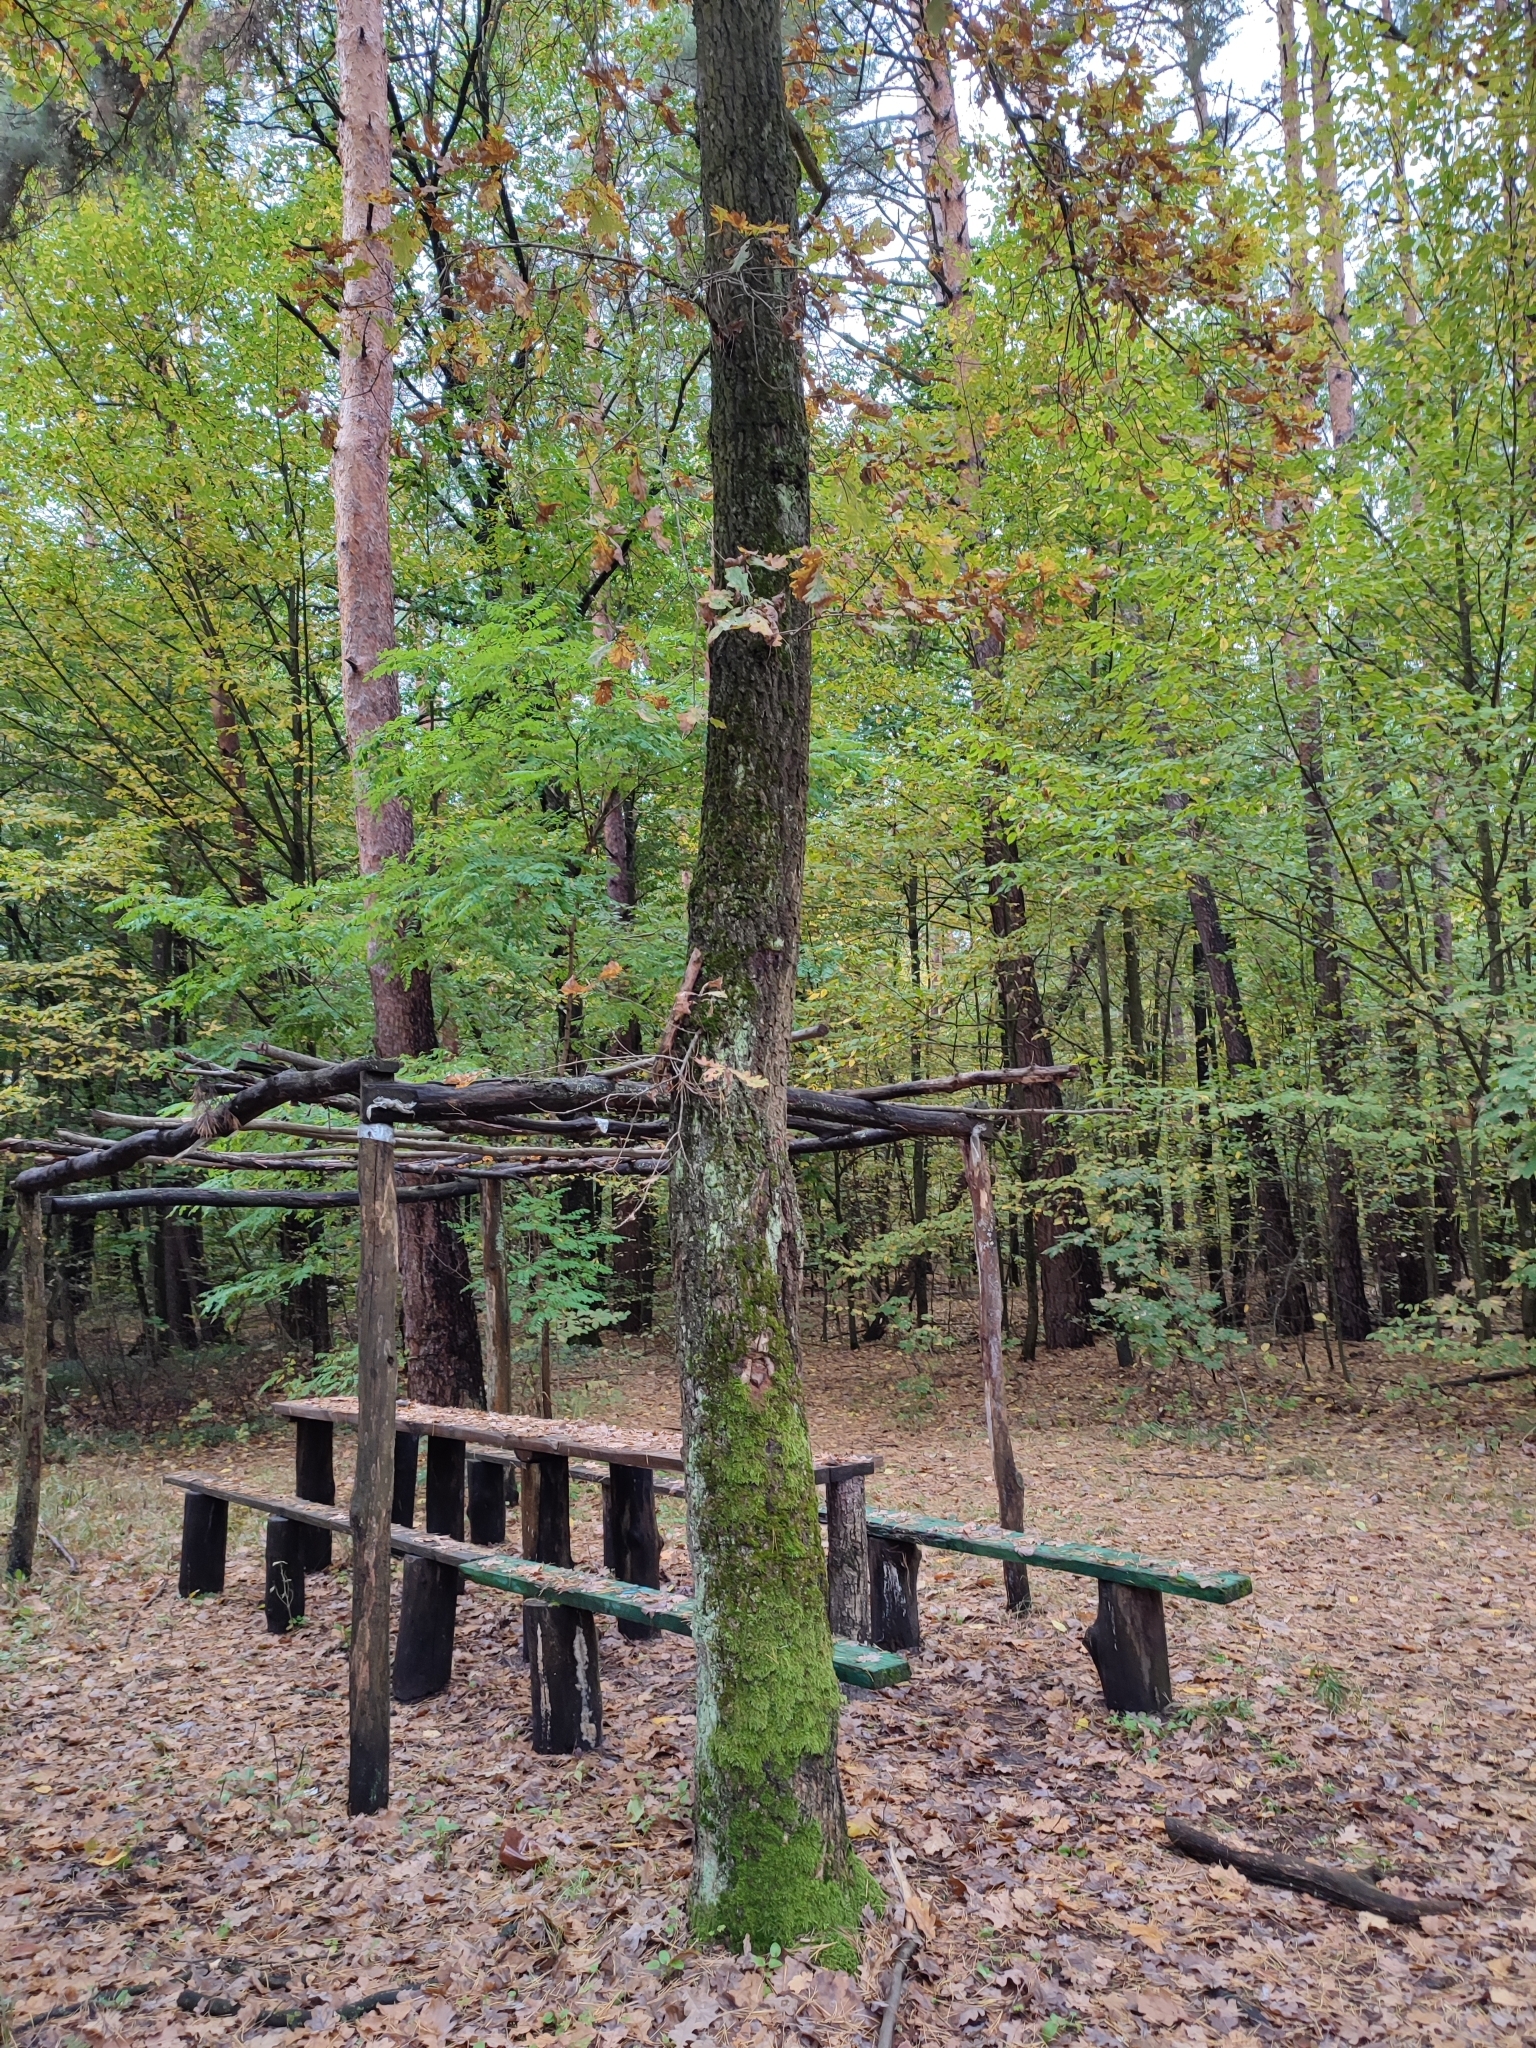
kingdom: Plantae
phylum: Tracheophyta
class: Magnoliopsida
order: Fagales
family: Fagaceae
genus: Quercus
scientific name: Quercus robur
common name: Pedunculate oak
